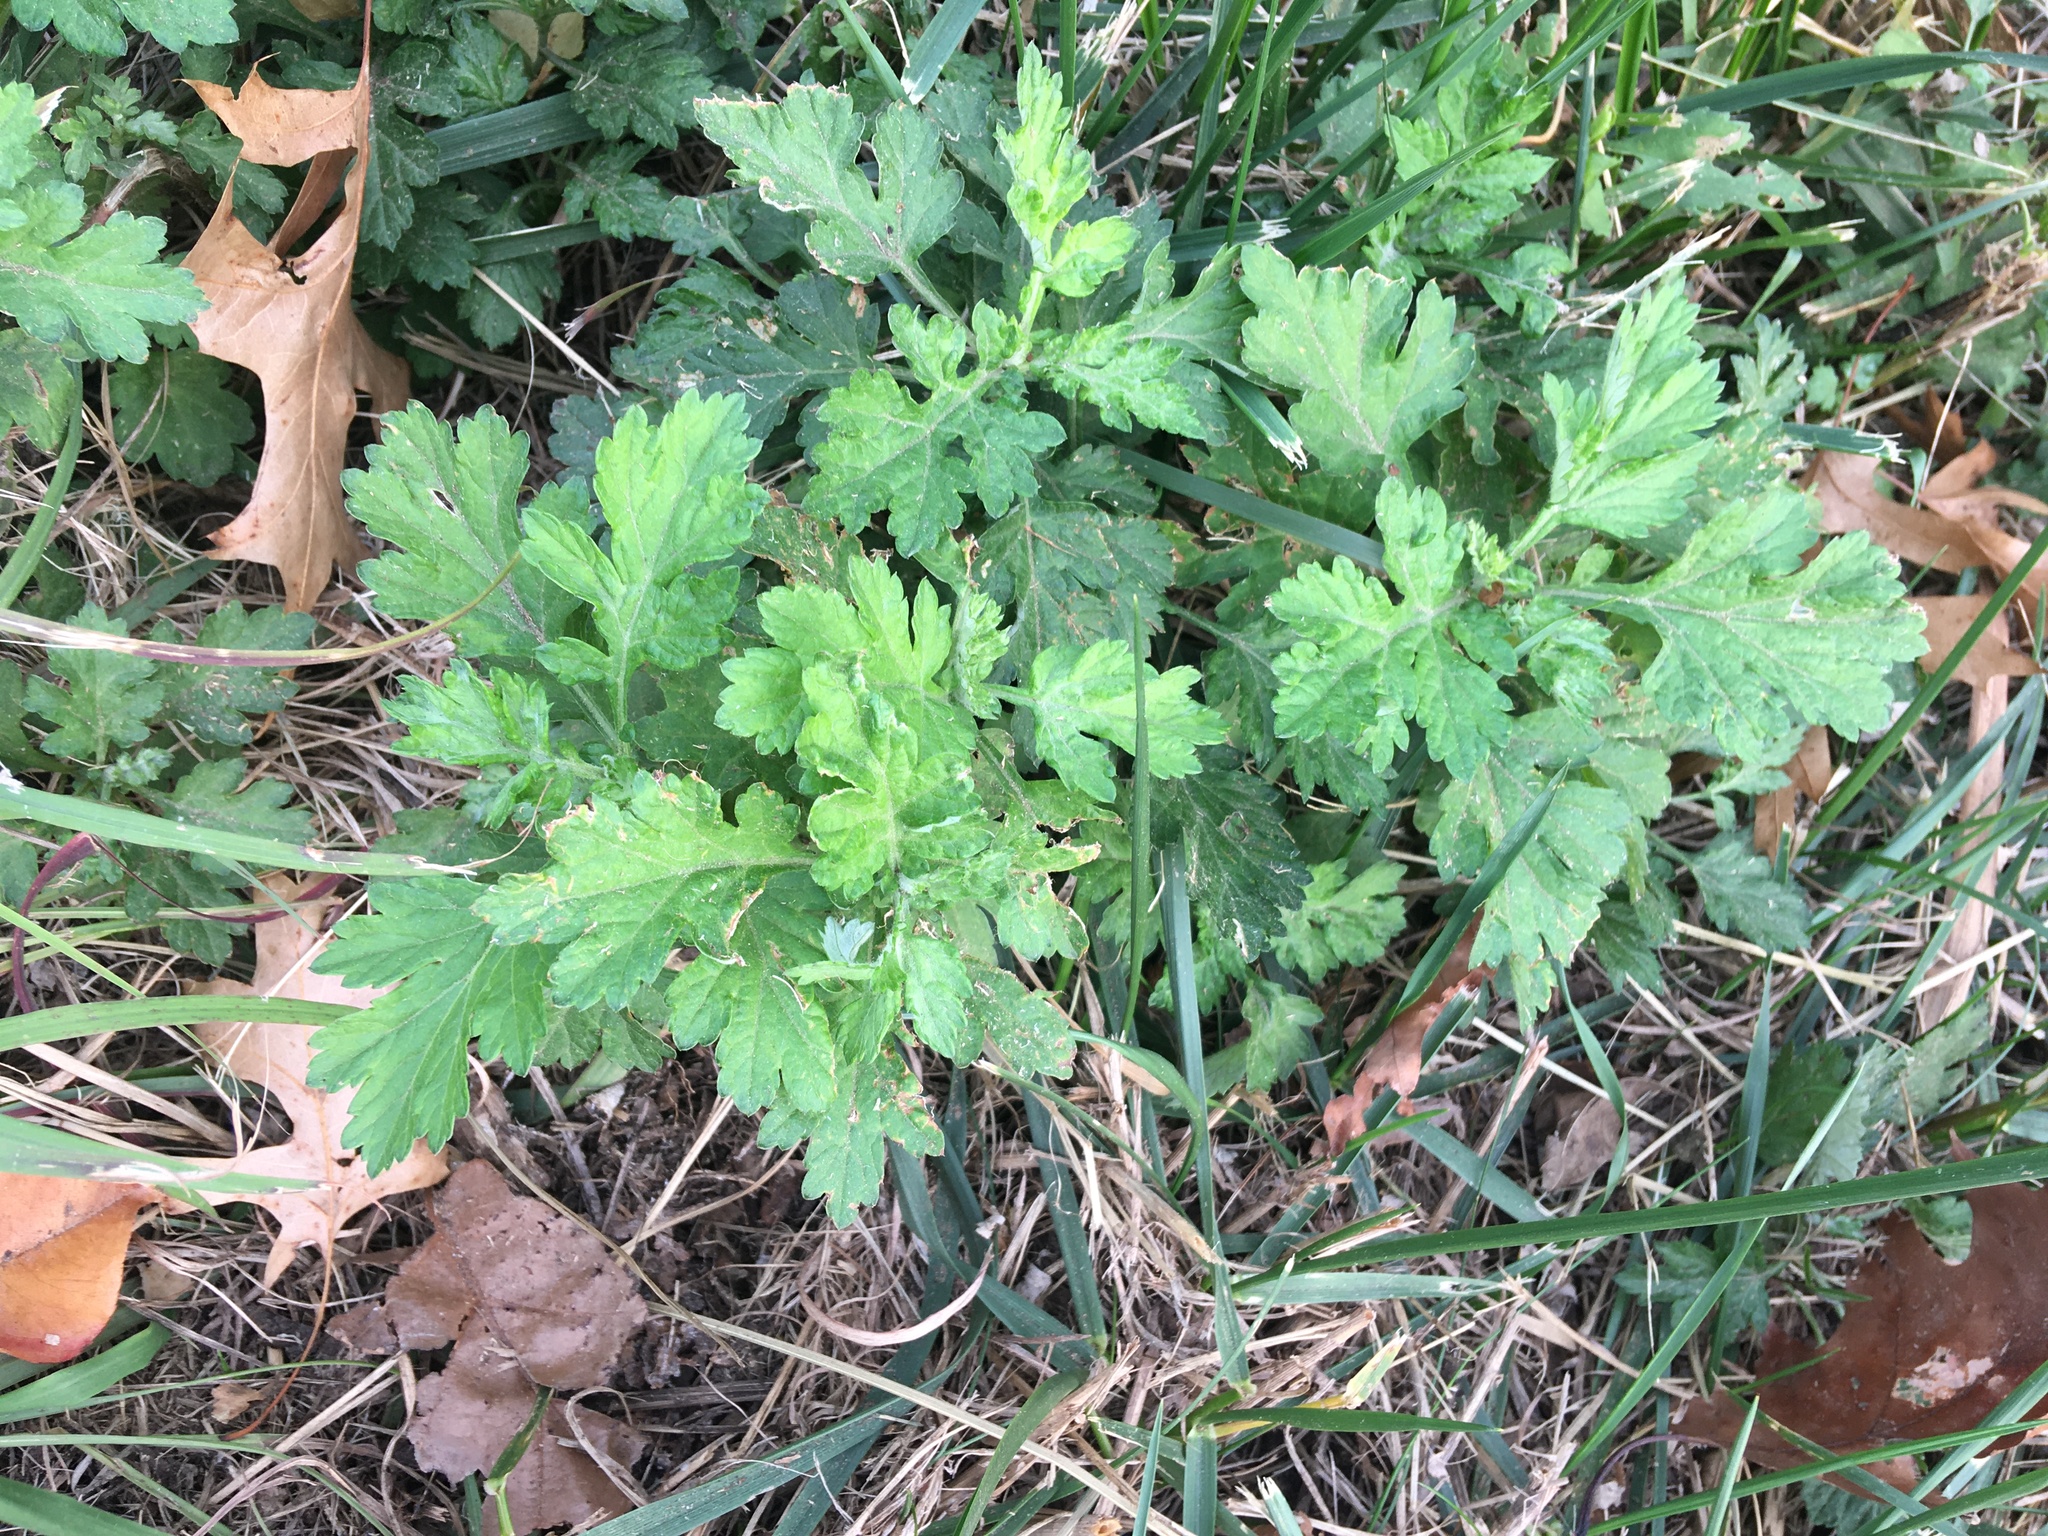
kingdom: Plantae
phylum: Tracheophyta
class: Magnoliopsida
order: Asterales
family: Asteraceae
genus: Artemisia
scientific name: Artemisia vulgaris
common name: Mugwort
